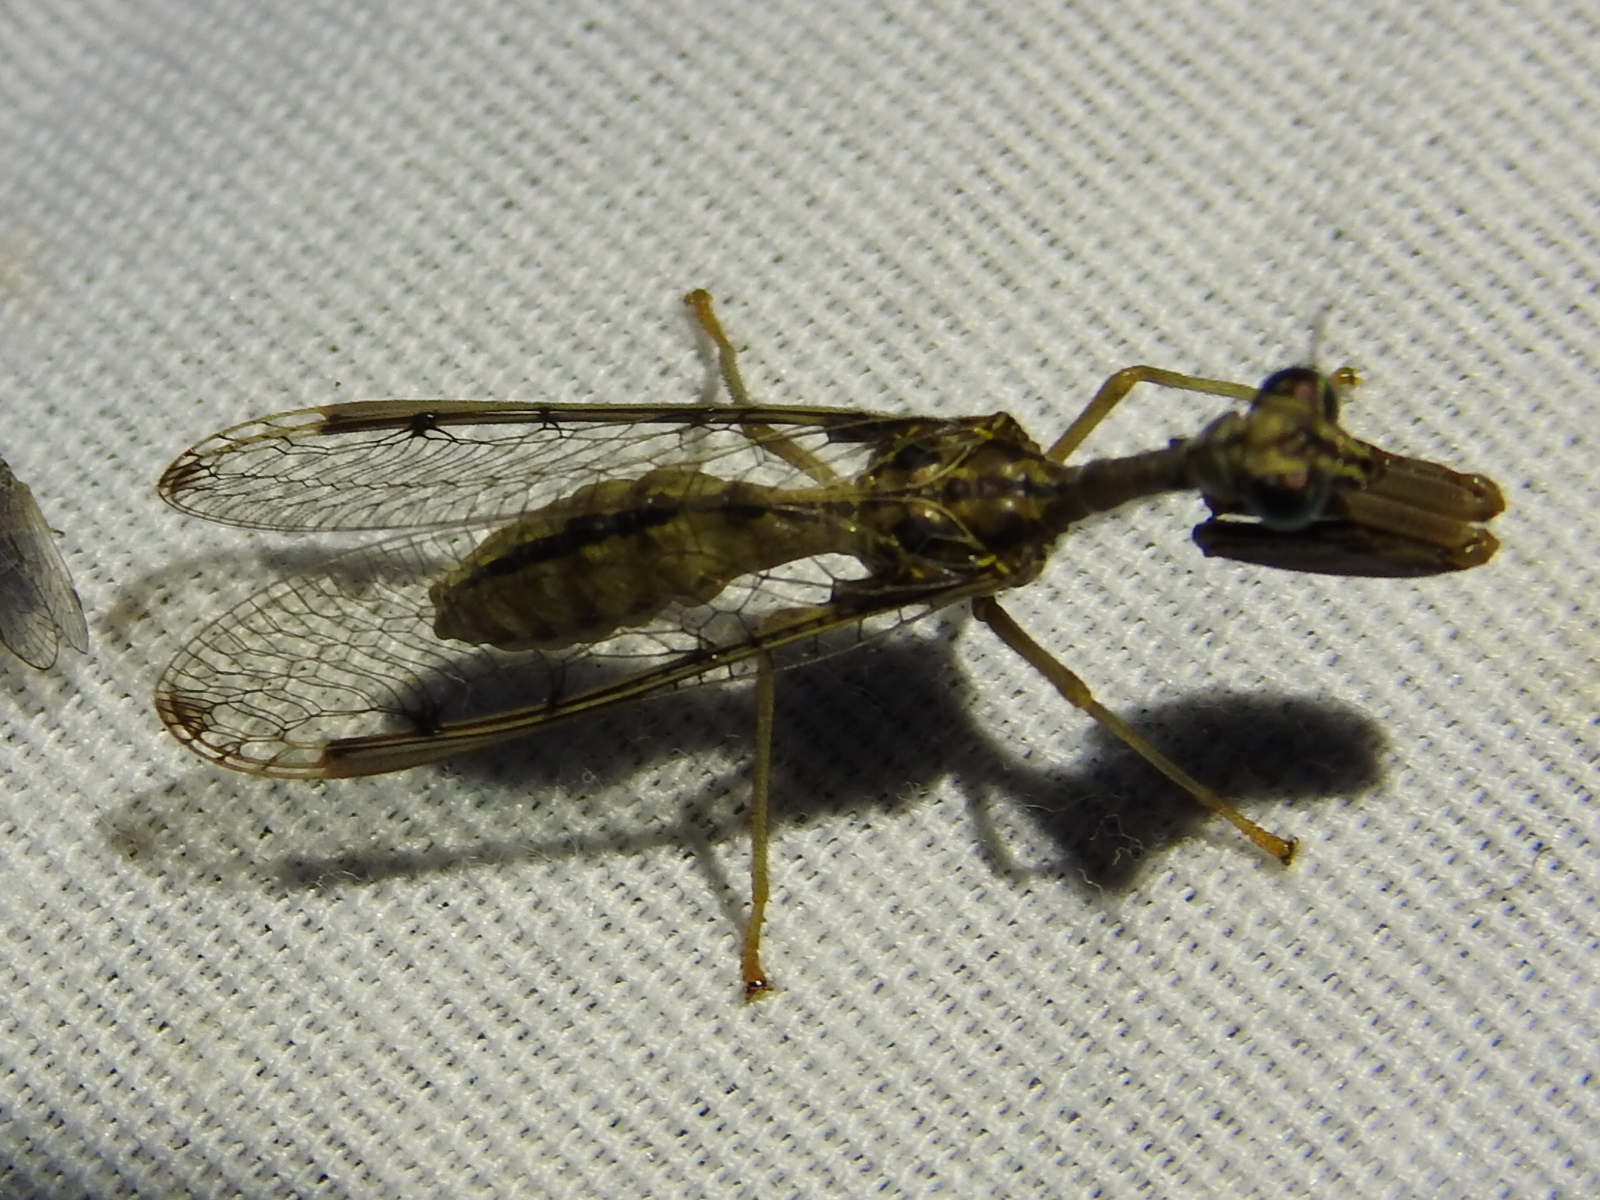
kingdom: Animalia
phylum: Arthropoda
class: Insecta
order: Neuroptera
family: Mantispidae
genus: Dicromantispa
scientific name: Dicromantispa interrupta
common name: Four-spotted mantidfly
